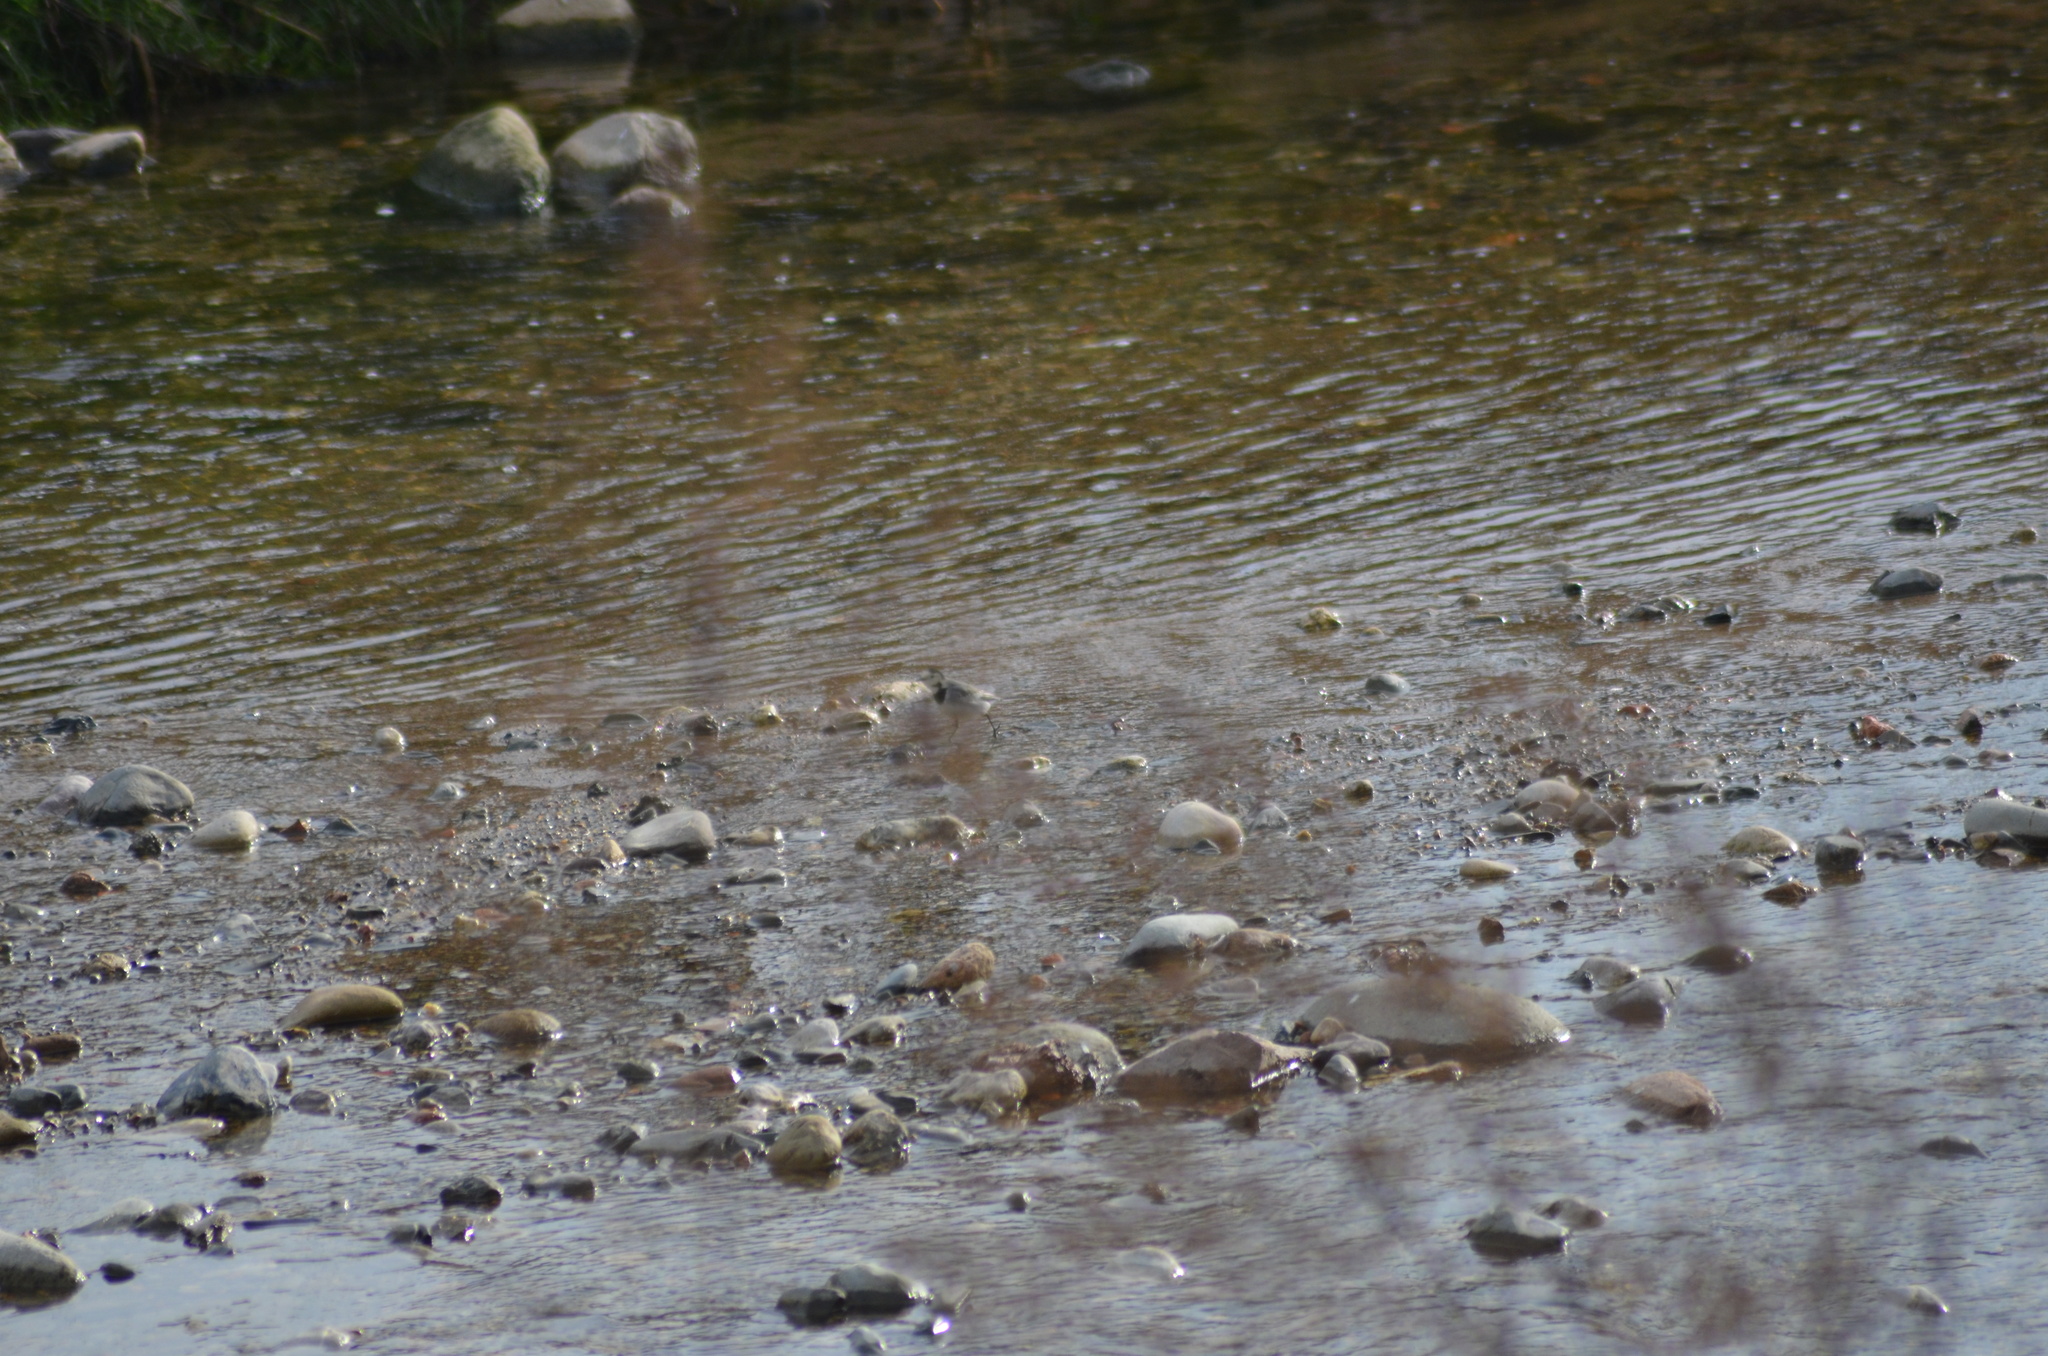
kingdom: Animalia
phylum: Chordata
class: Aves
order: Passeriformes
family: Motacillidae
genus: Motacilla
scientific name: Motacilla alba
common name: White wagtail
